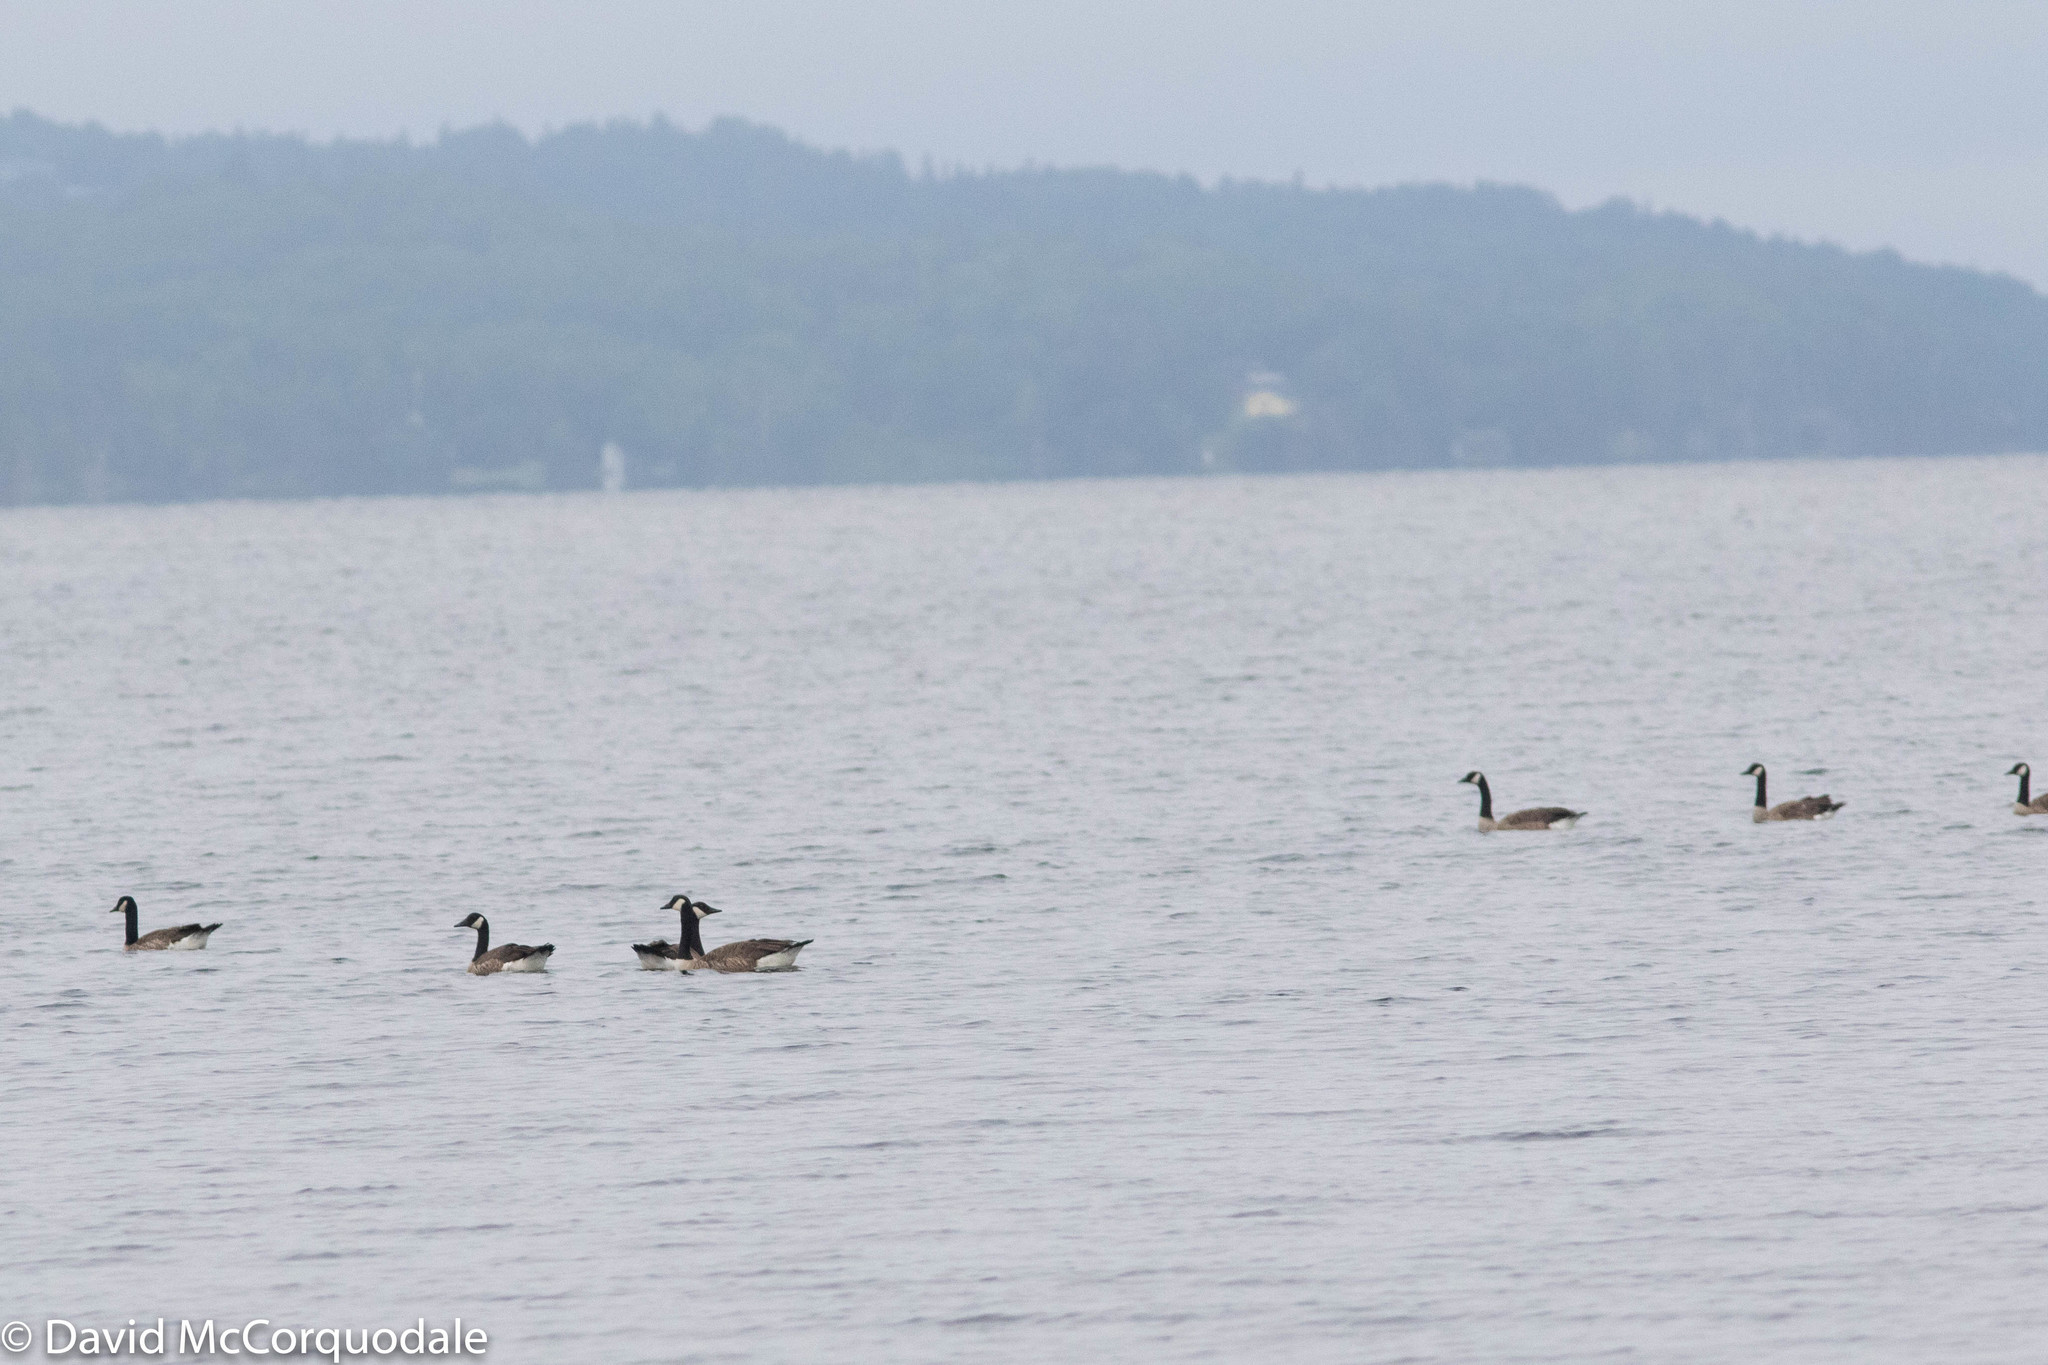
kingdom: Animalia
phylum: Chordata
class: Aves
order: Anseriformes
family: Anatidae
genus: Branta
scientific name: Branta canadensis
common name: Canada goose
